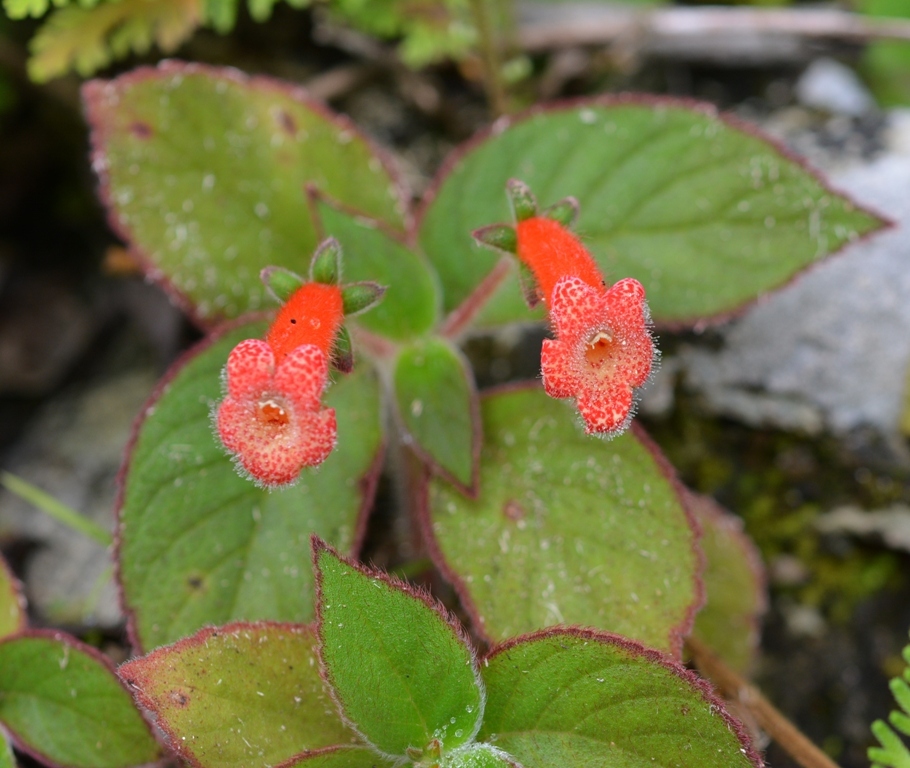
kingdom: Plantae
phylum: Tracheophyta
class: Magnoliopsida
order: Lamiales
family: Gesneriaceae
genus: Kohleria
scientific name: Kohleria rugata
